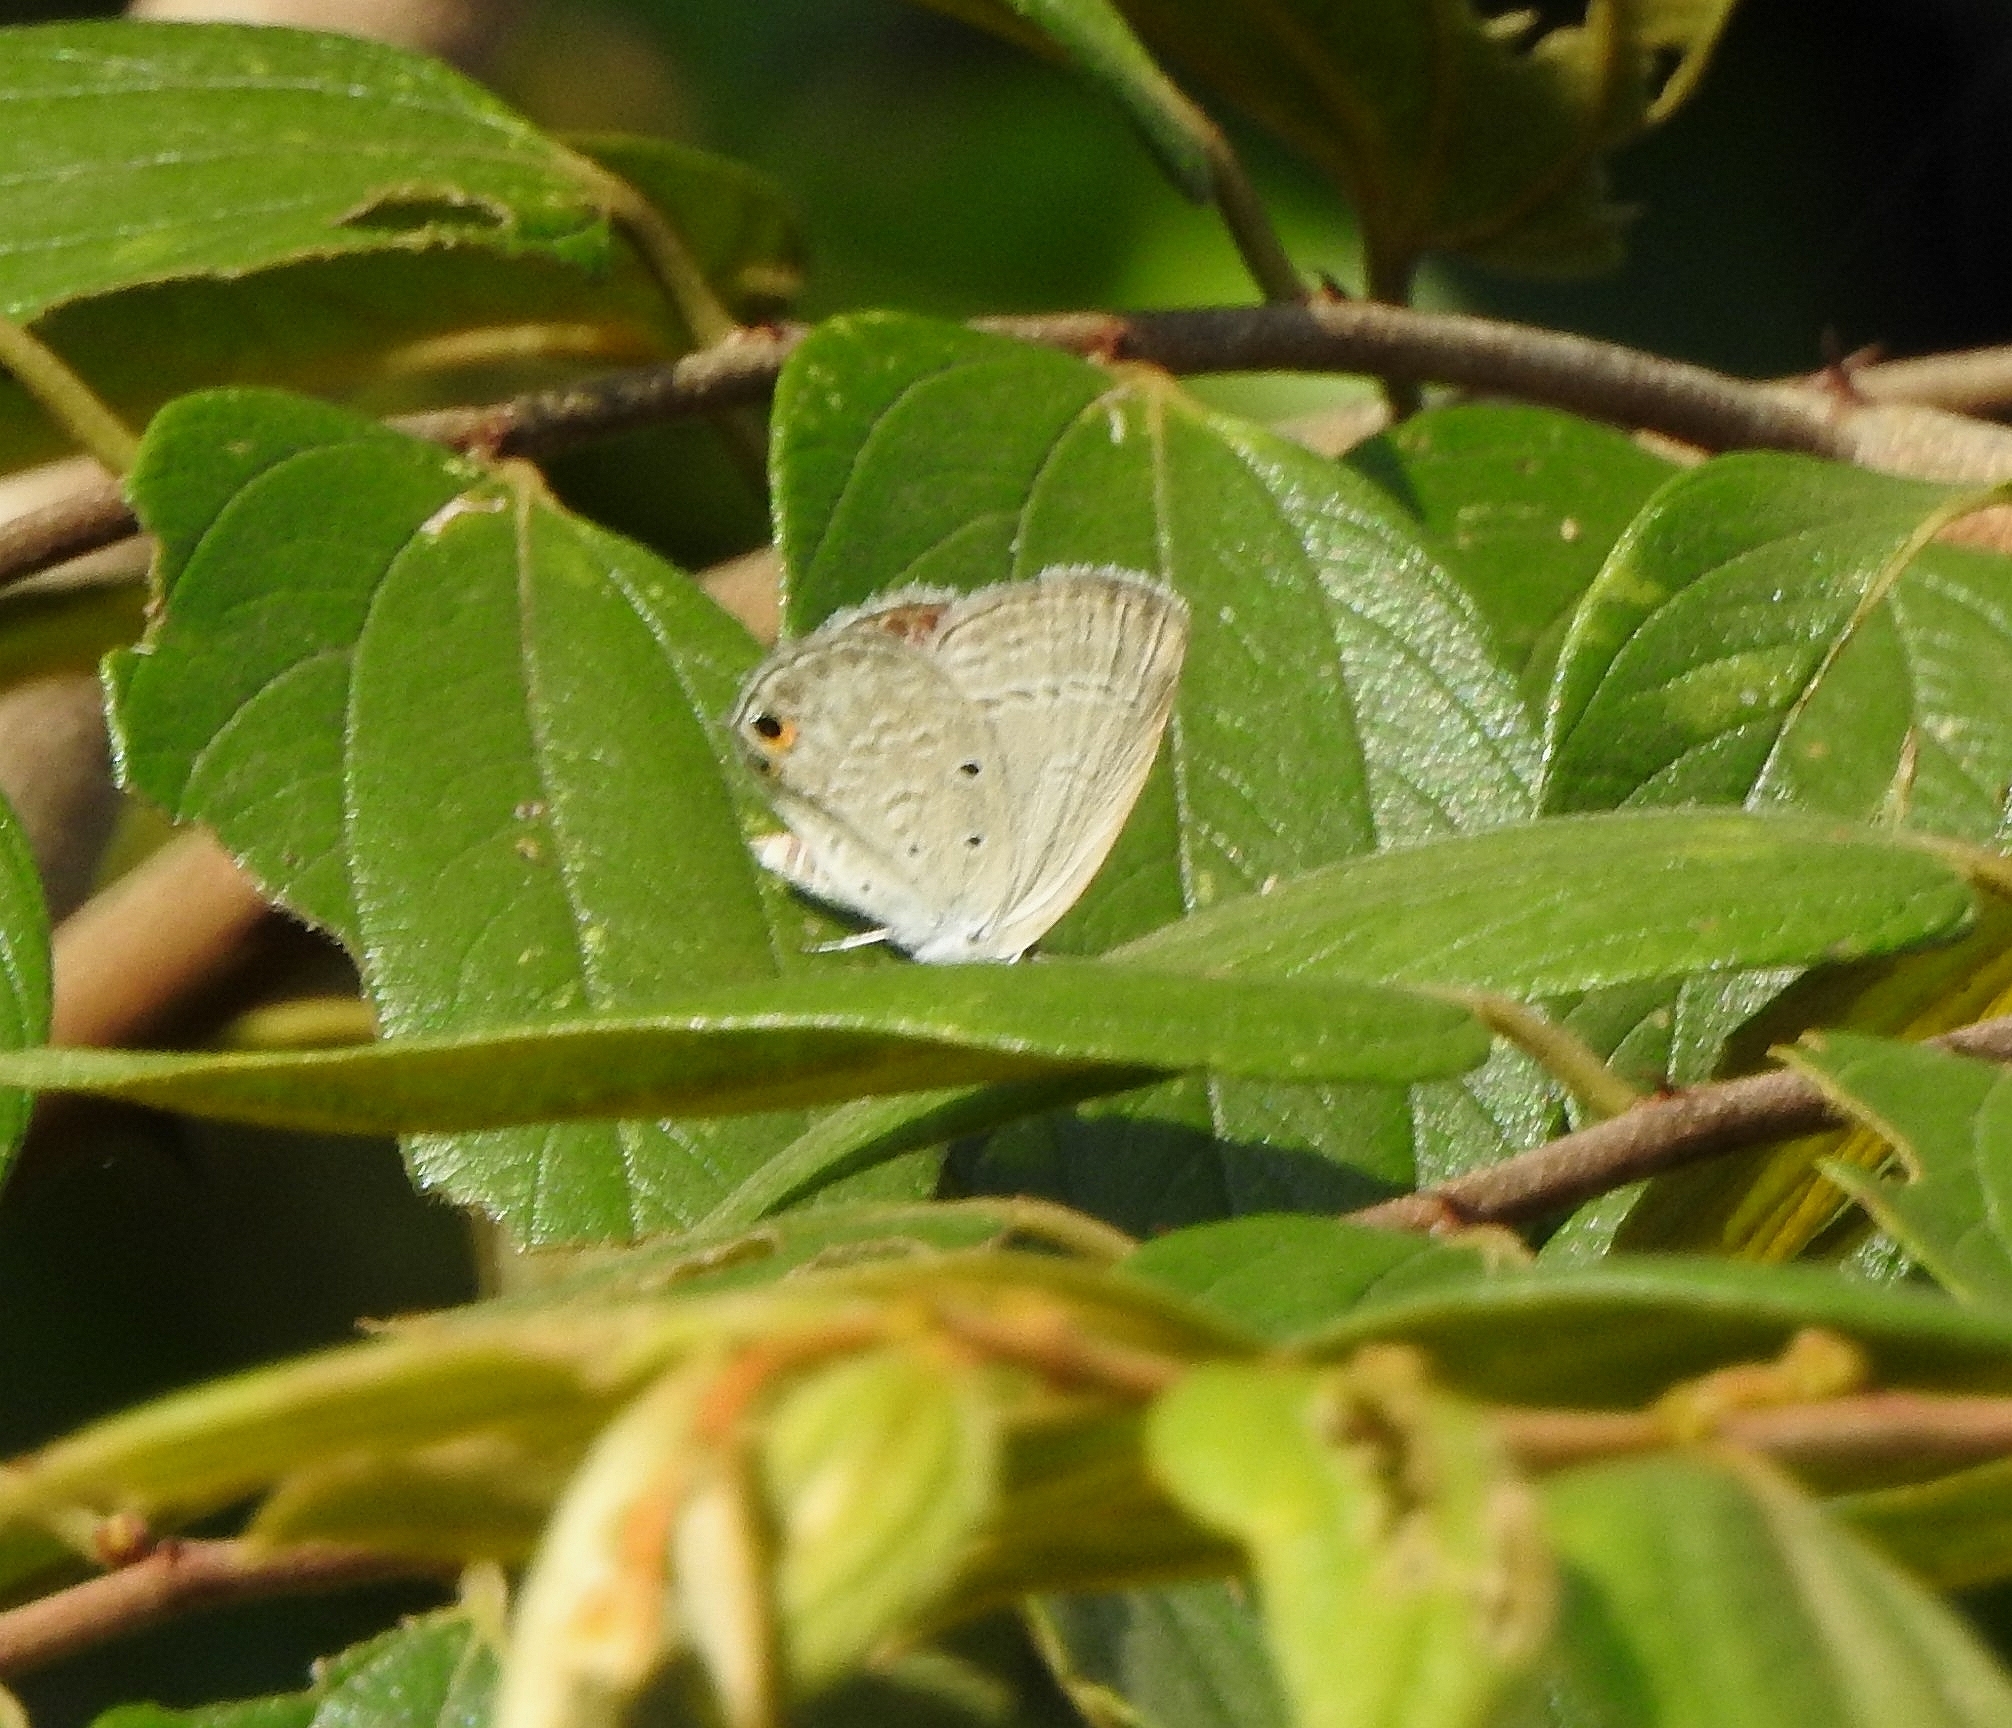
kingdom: Animalia
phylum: Arthropoda
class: Insecta
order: Lepidoptera
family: Lycaenidae
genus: Euchrysops
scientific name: Euchrysops cnejus
